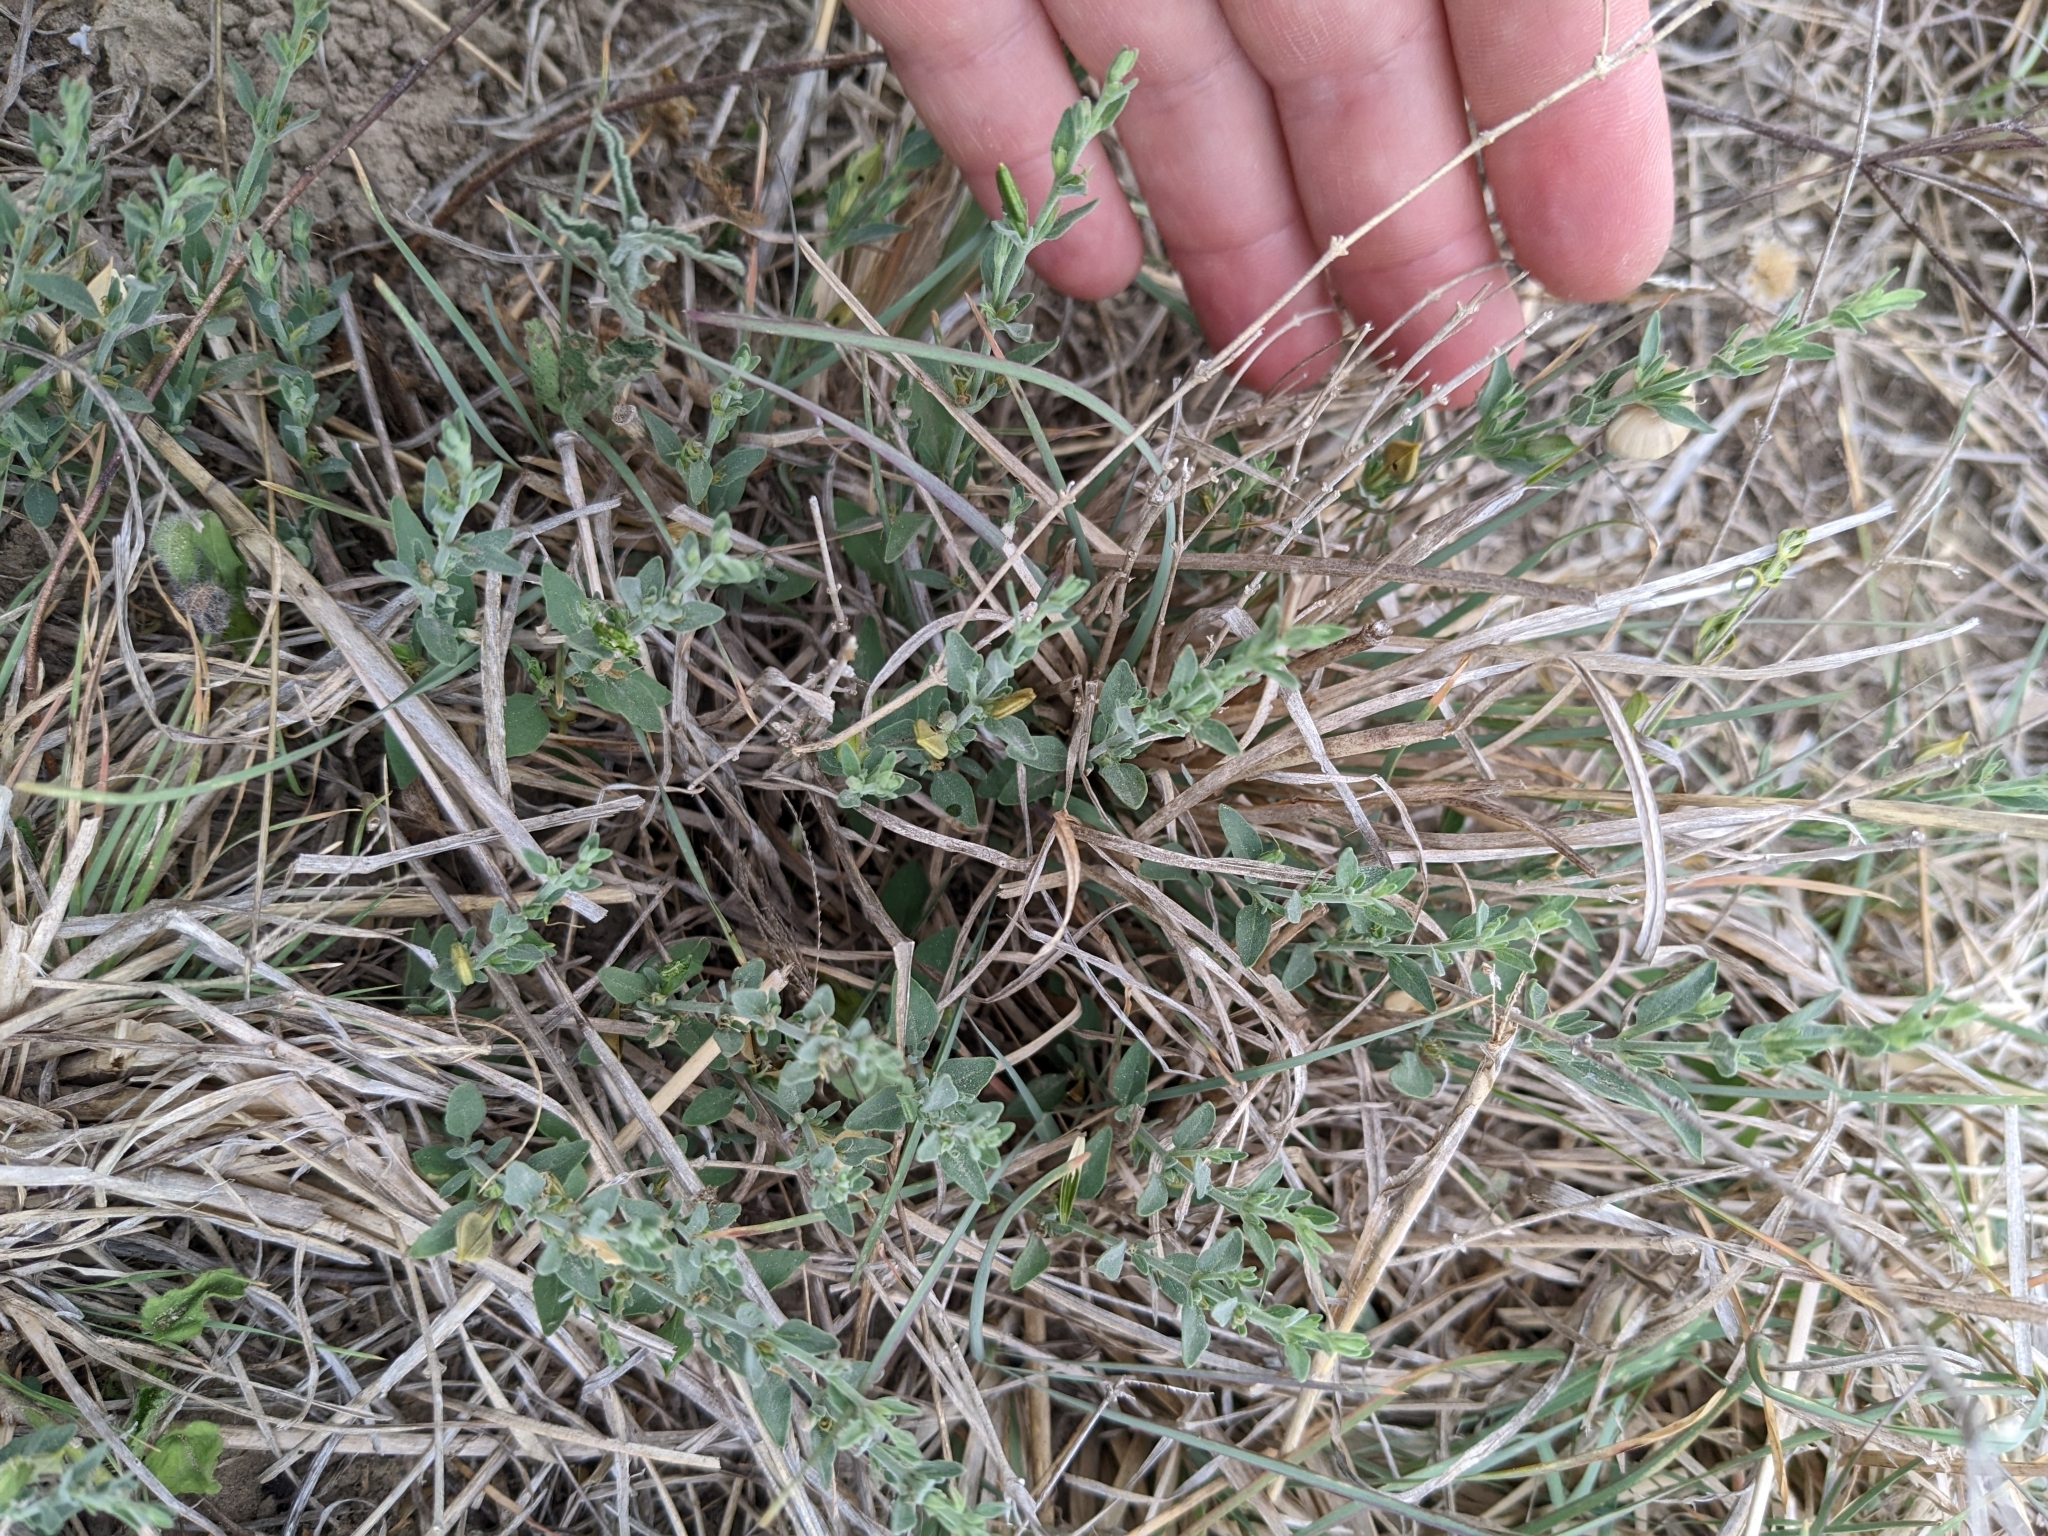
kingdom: Plantae
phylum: Tracheophyta
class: Magnoliopsida
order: Lamiales
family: Acanthaceae
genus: Carlowrightia
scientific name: Carlowrightia texana
